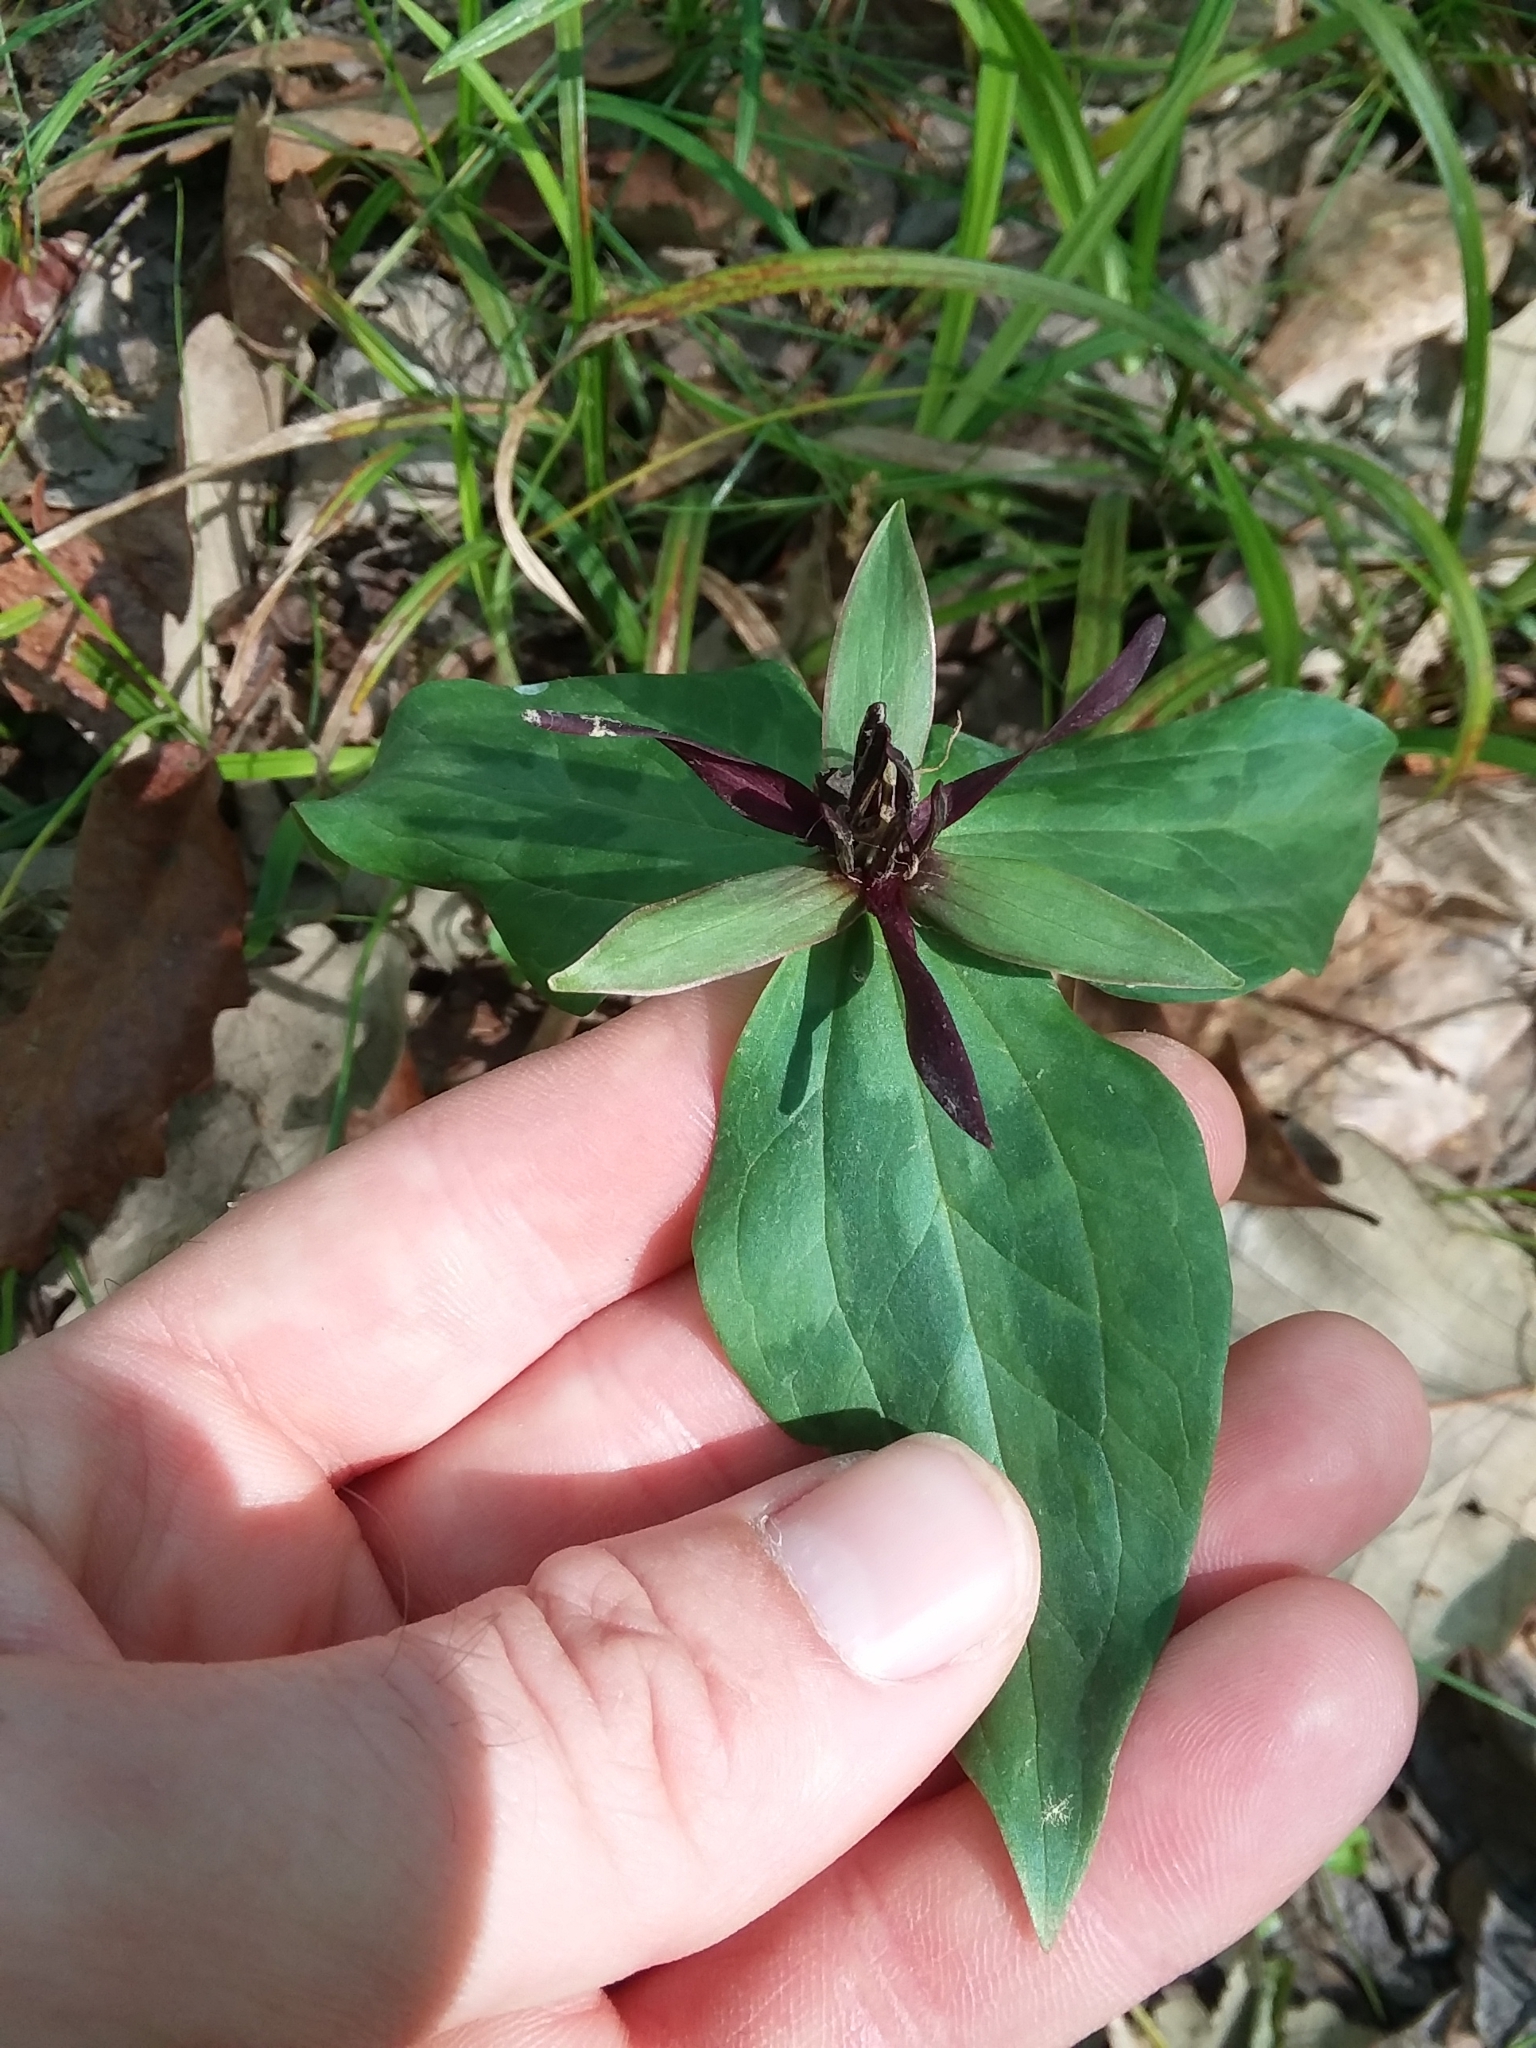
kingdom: Plantae
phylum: Tracheophyta
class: Liliopsida
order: Liliales
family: Melanthiaceae
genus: Trillium
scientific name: Trillium stamineum
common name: Blue ridge wakerobin
